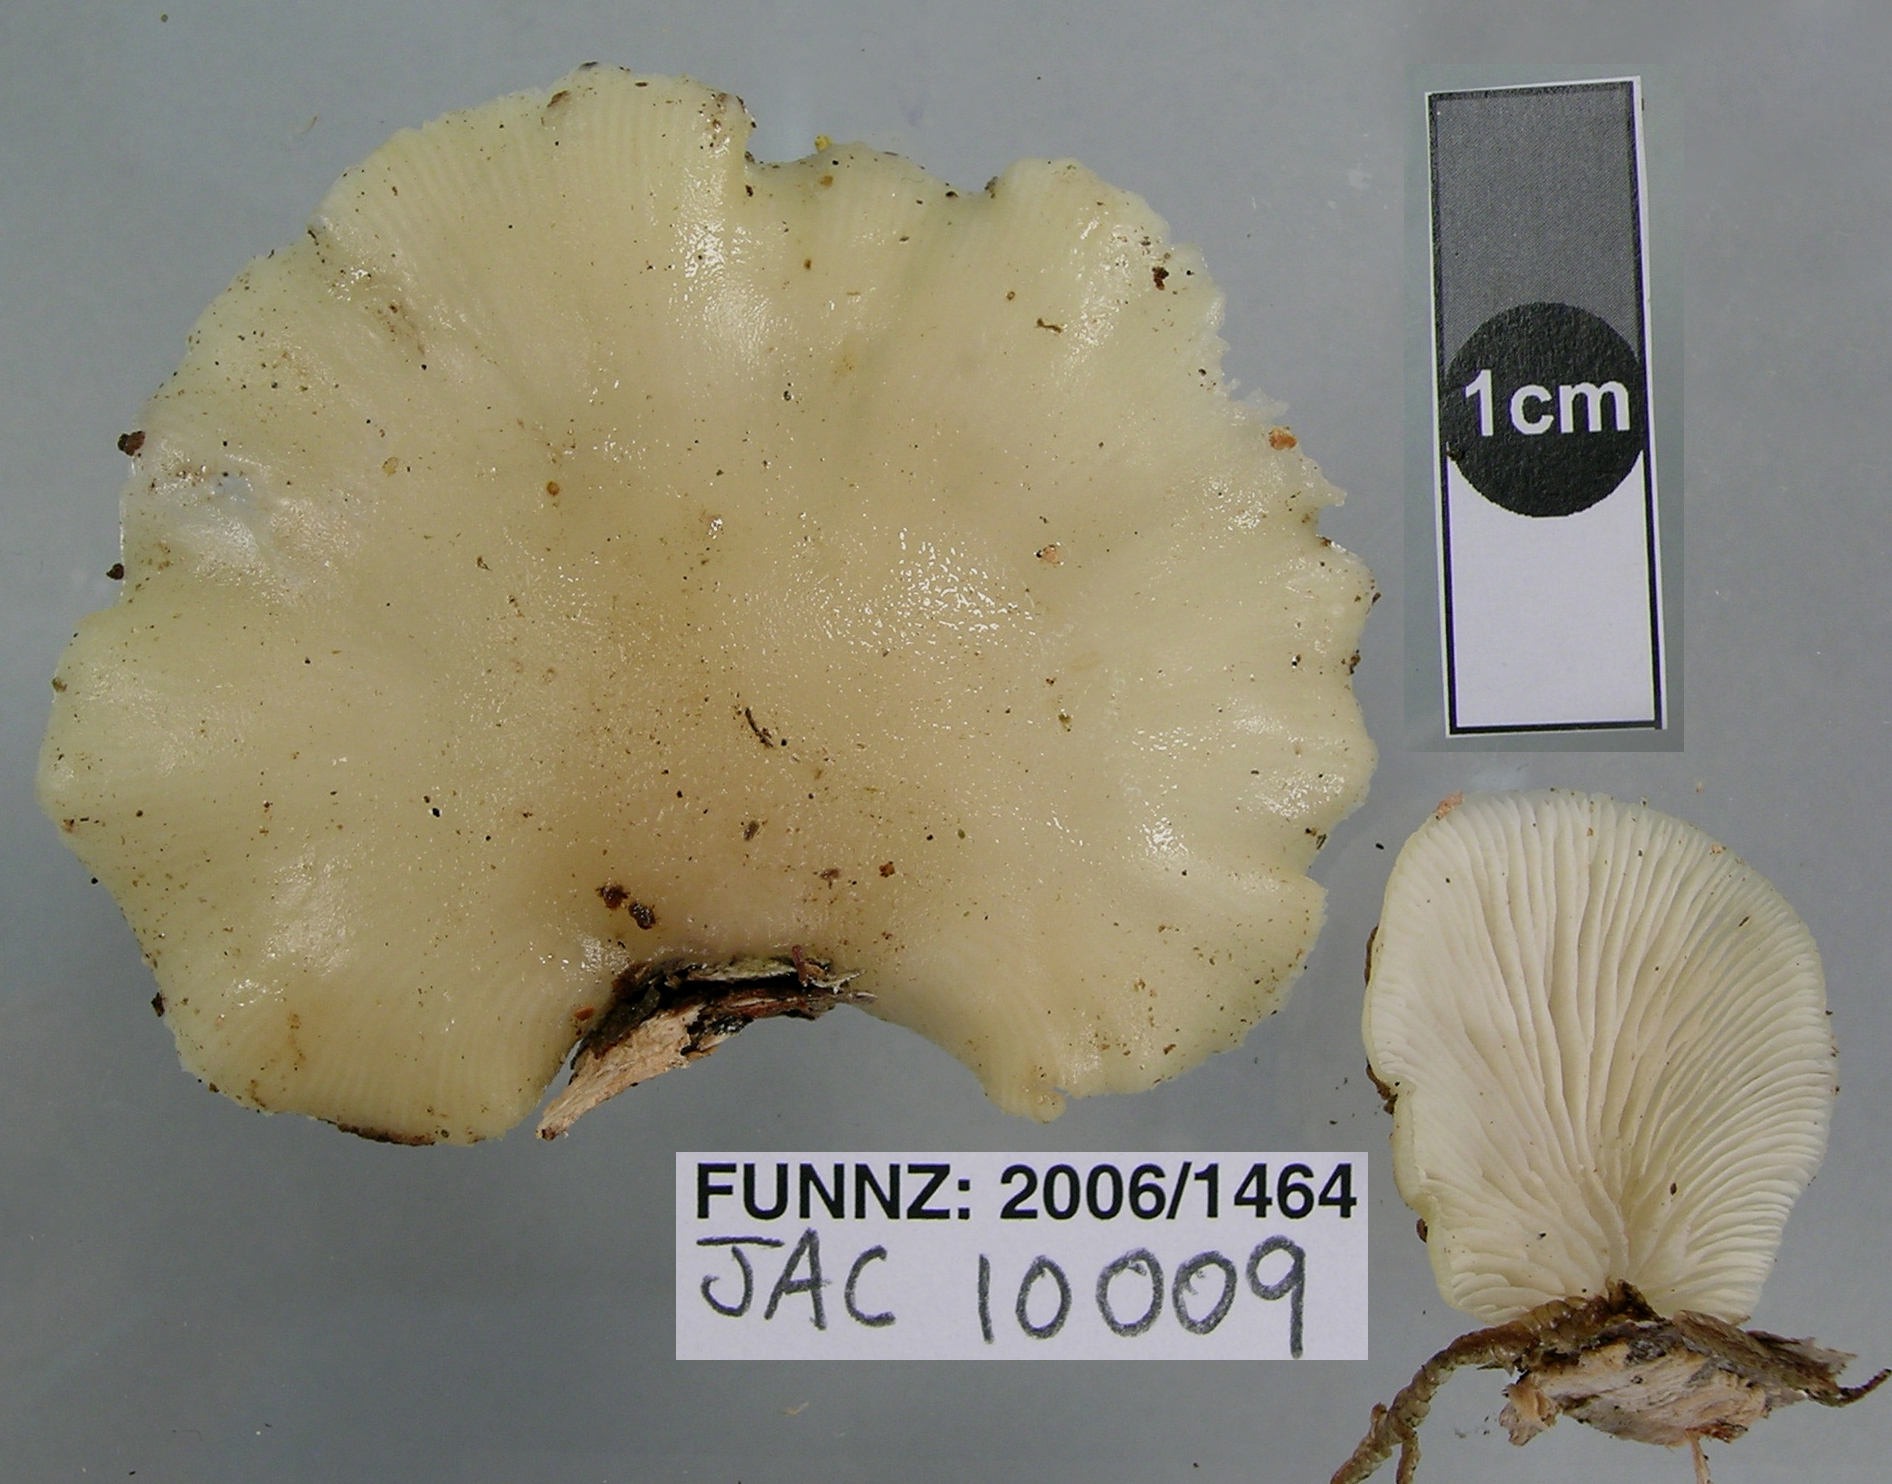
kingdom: Fungi
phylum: Basidiomycota
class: Agaricomycetes
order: Agaricales
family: Tricholomataceae
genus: Conchomyces
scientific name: Conchomyces bursiformis
